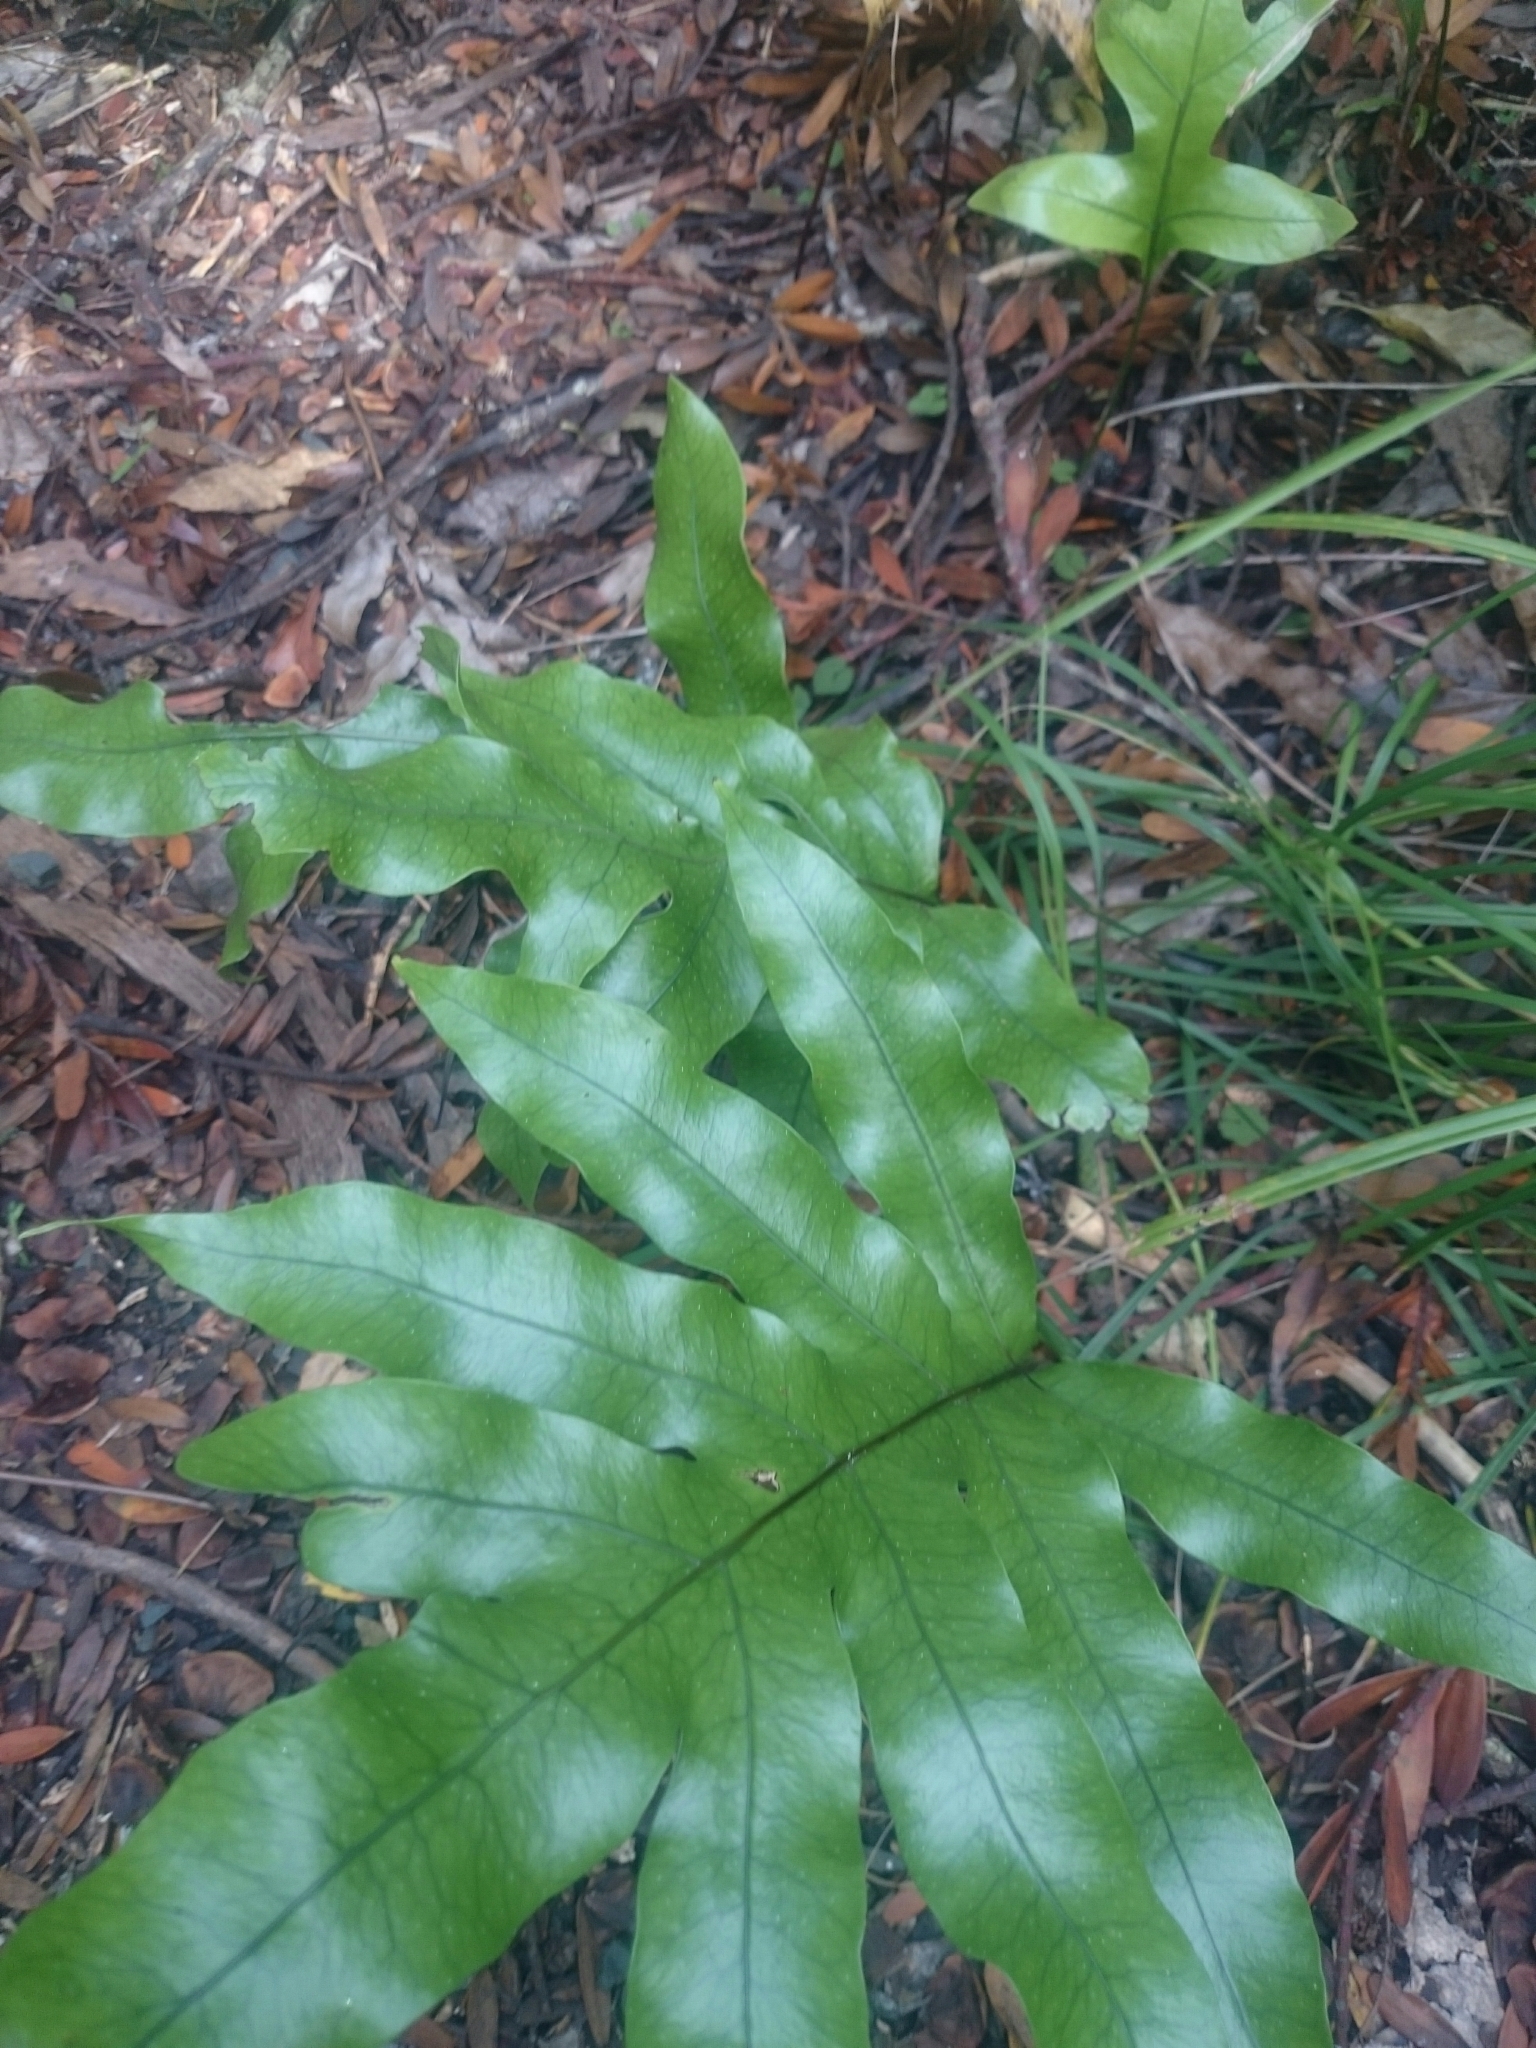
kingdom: Plantae
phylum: Tracheophyta
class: Polypodiopsida
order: Polypodiales
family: Polypodiaceae
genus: Lecanopteris
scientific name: Lecanopteris pustulata
